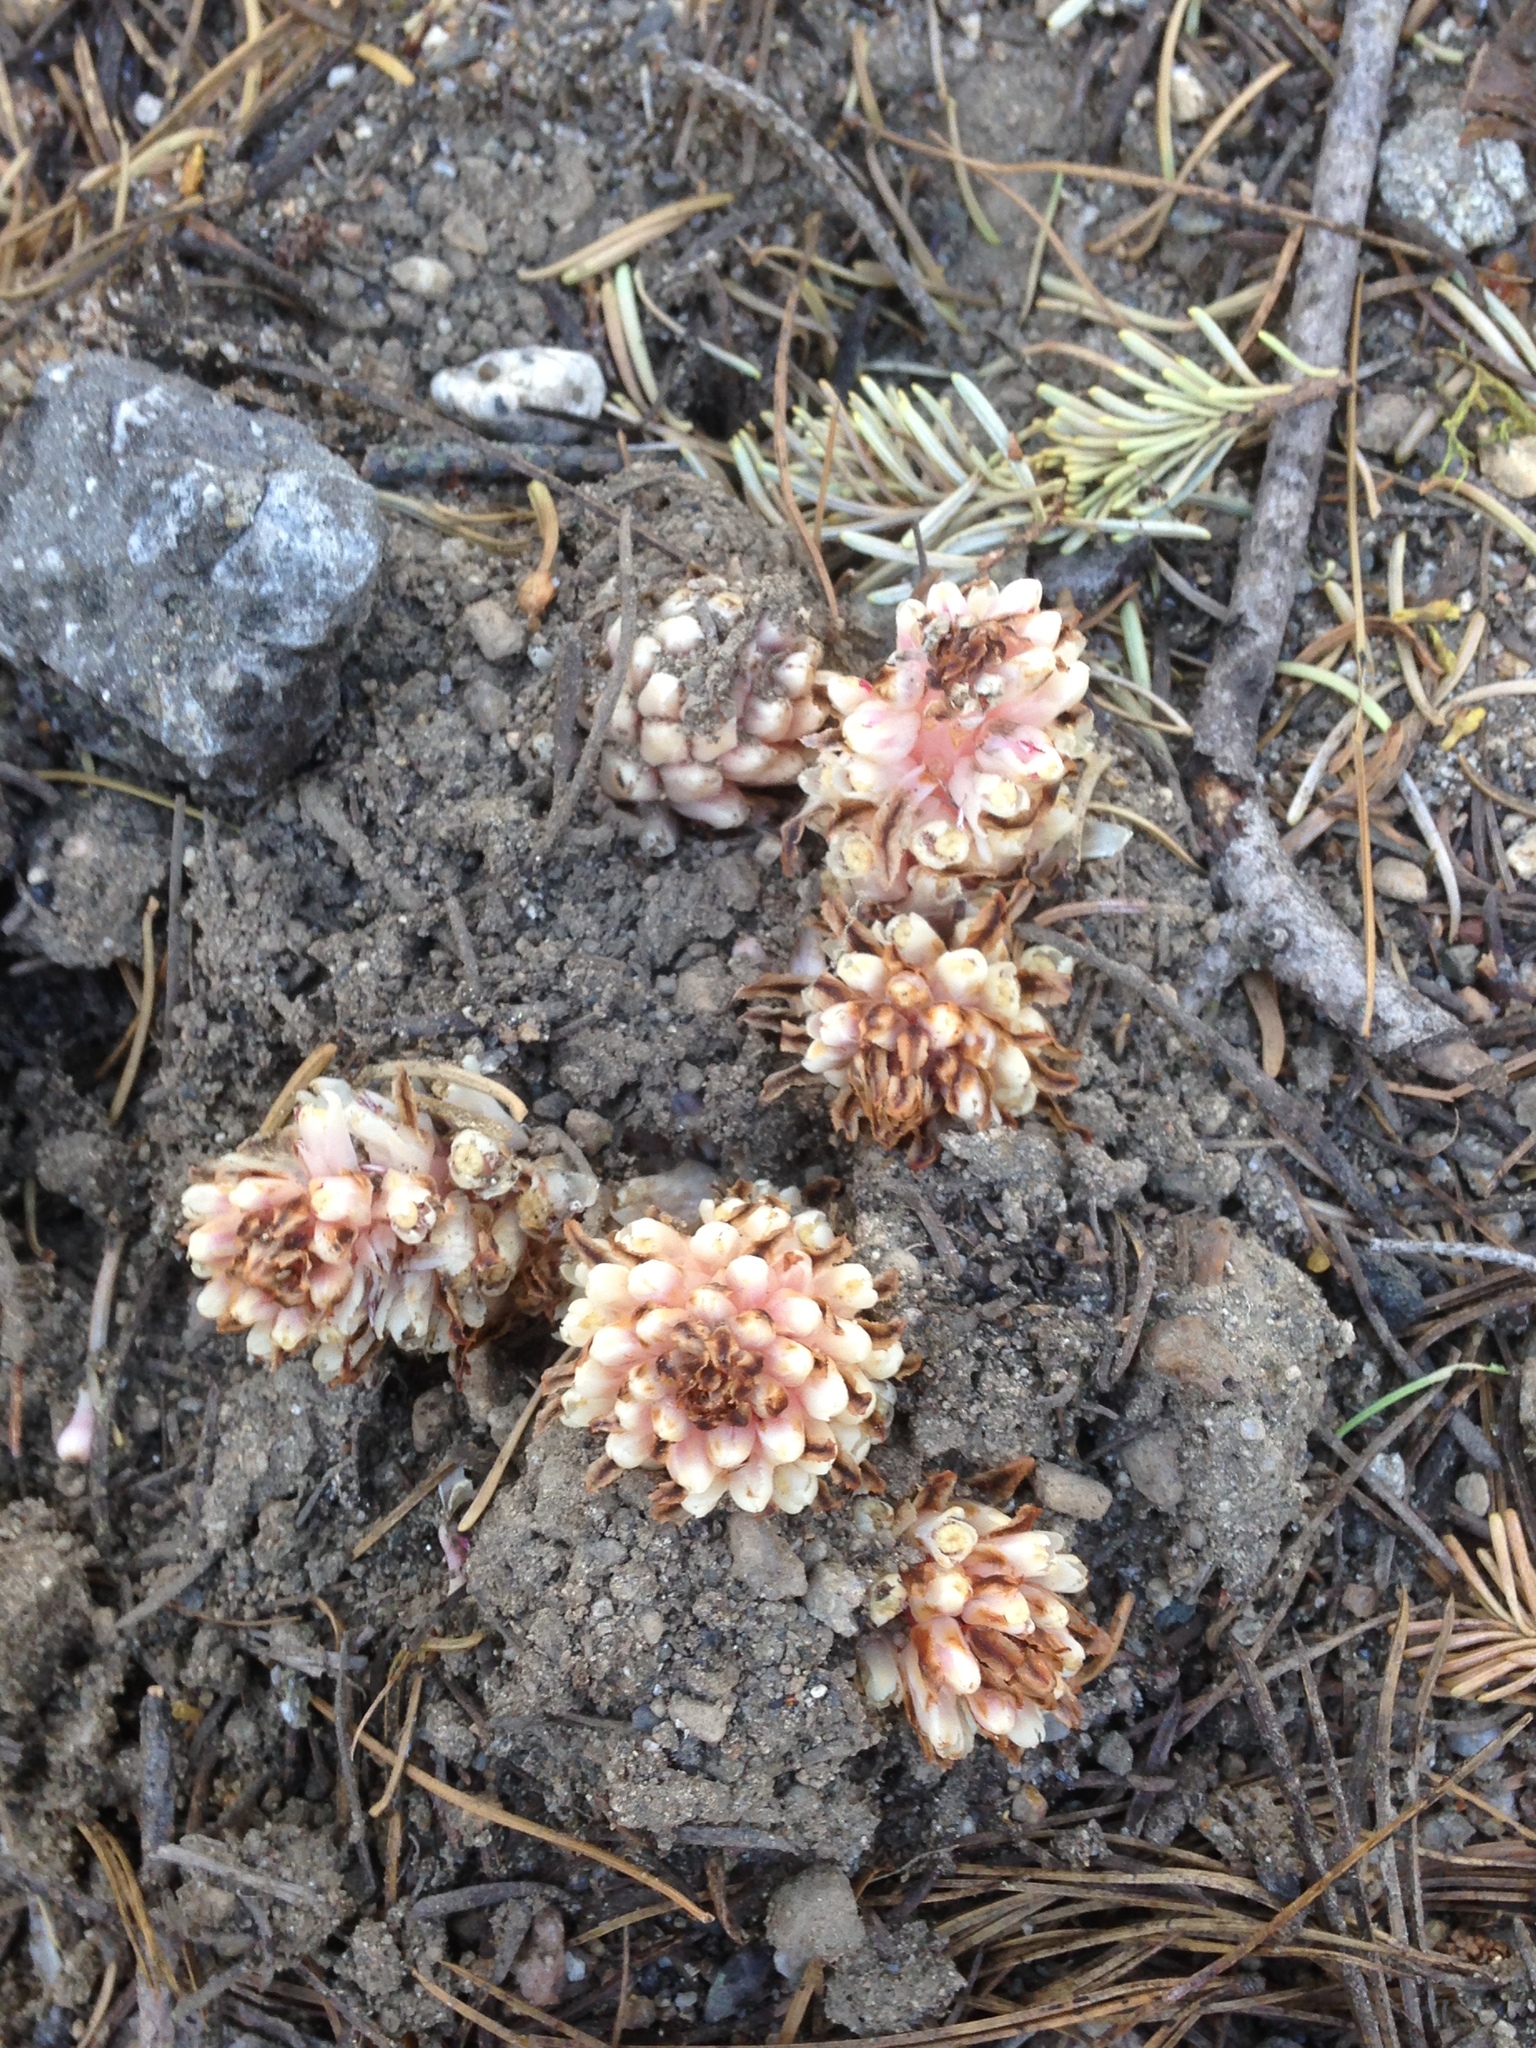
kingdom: Plantae
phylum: Tracheophyta
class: Magnoliopsida
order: Ericales
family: Ericaceae
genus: Hemitomes
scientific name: Hemitomes congestum
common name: Cone plant
